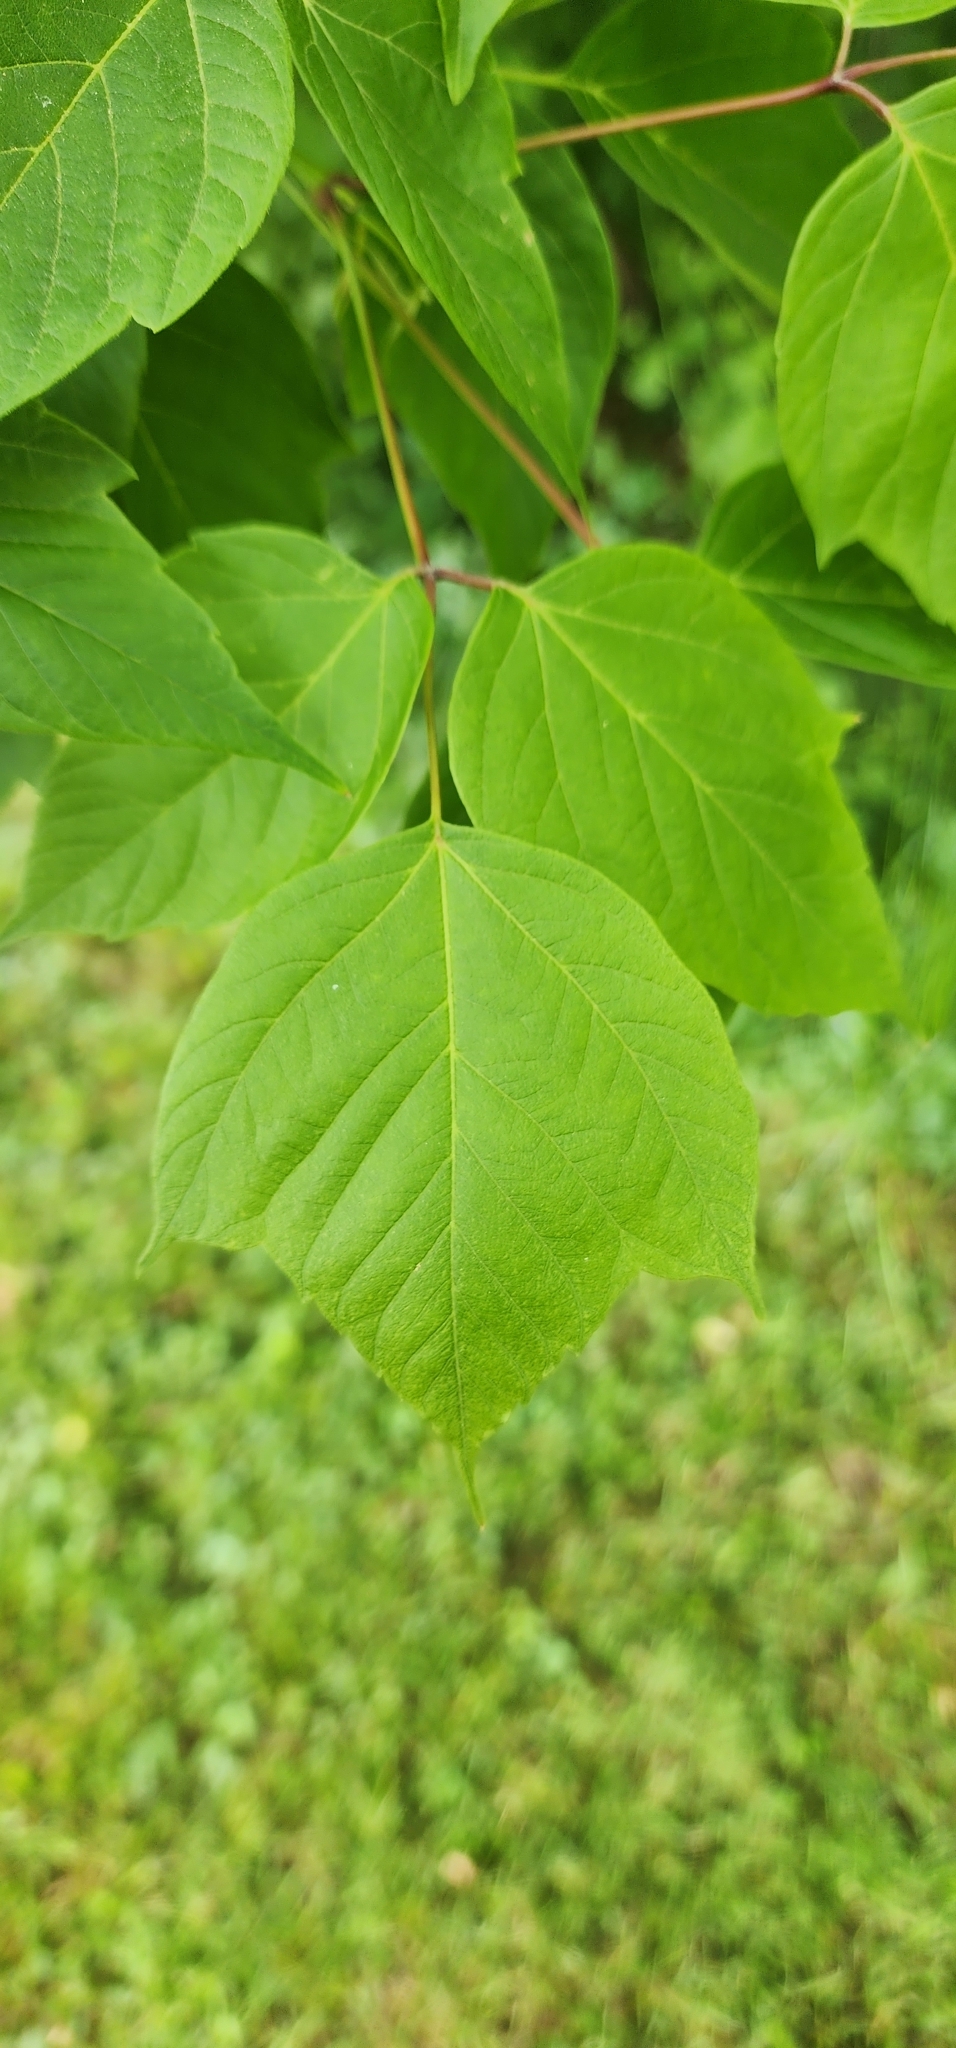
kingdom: Plantae
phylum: Tracheophyta
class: Magnoliopsida
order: Sapindales
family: Sapindaceae
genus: Acer
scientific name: Acer negundo
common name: Ashleaf maple
